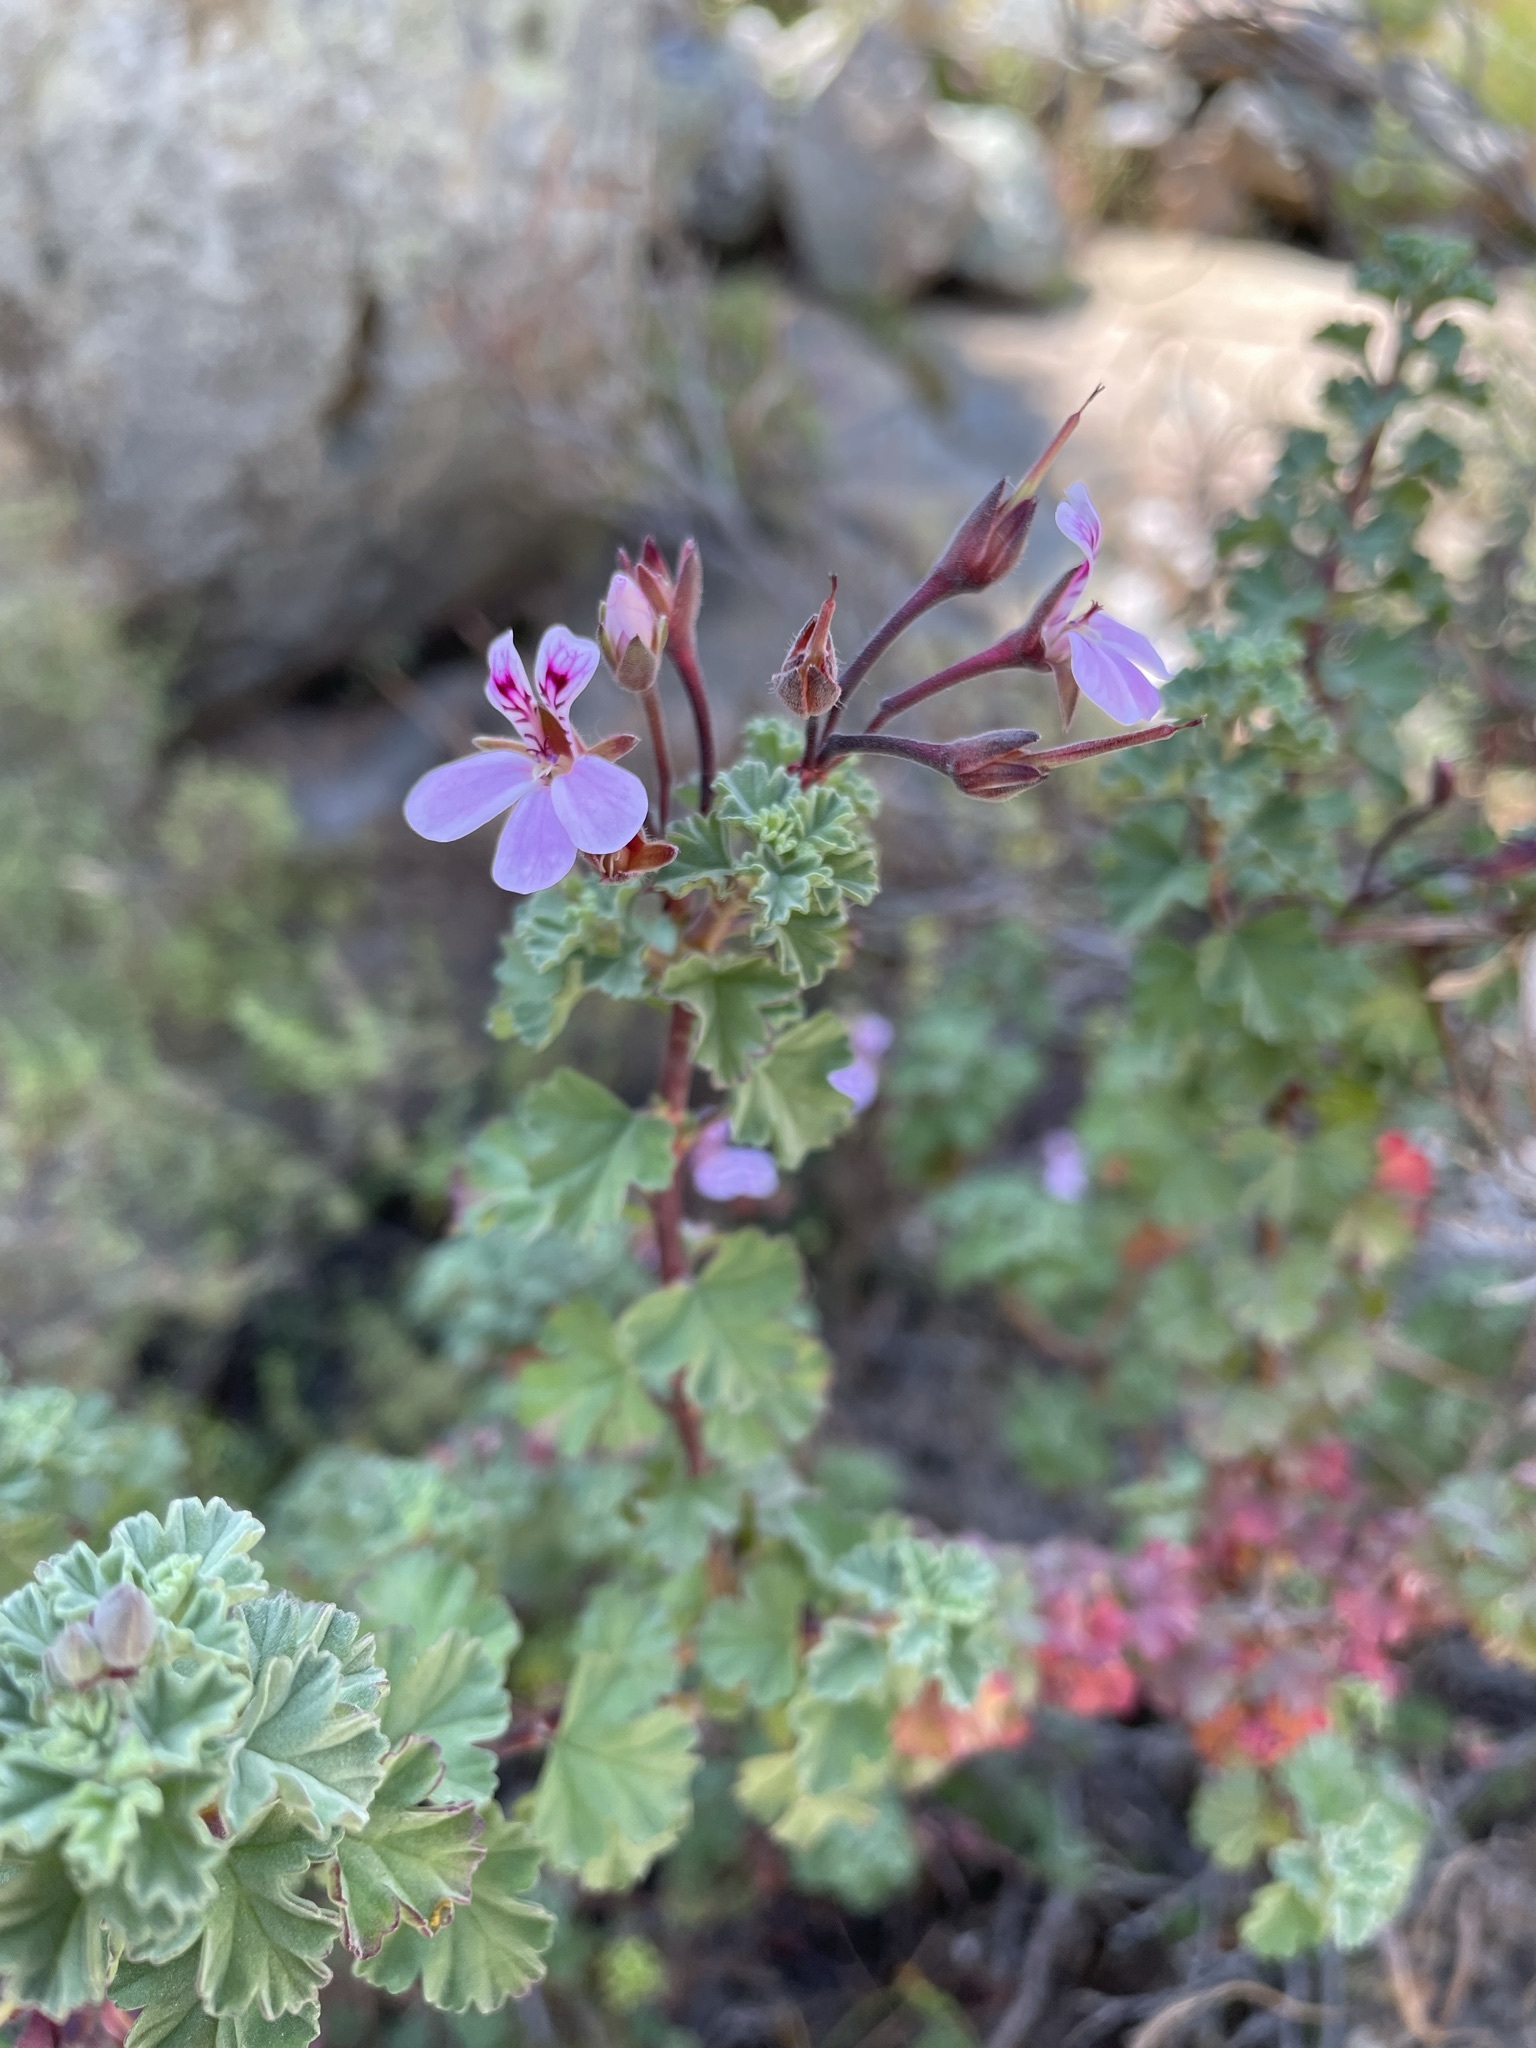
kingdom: Plantae
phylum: Tracheophyta
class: Magnoliopsida
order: Geraniales
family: Geraniaceae
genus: Pelargonium
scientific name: Pelargonium exstipulatum
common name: Soft-leaf trifid pelargonium
